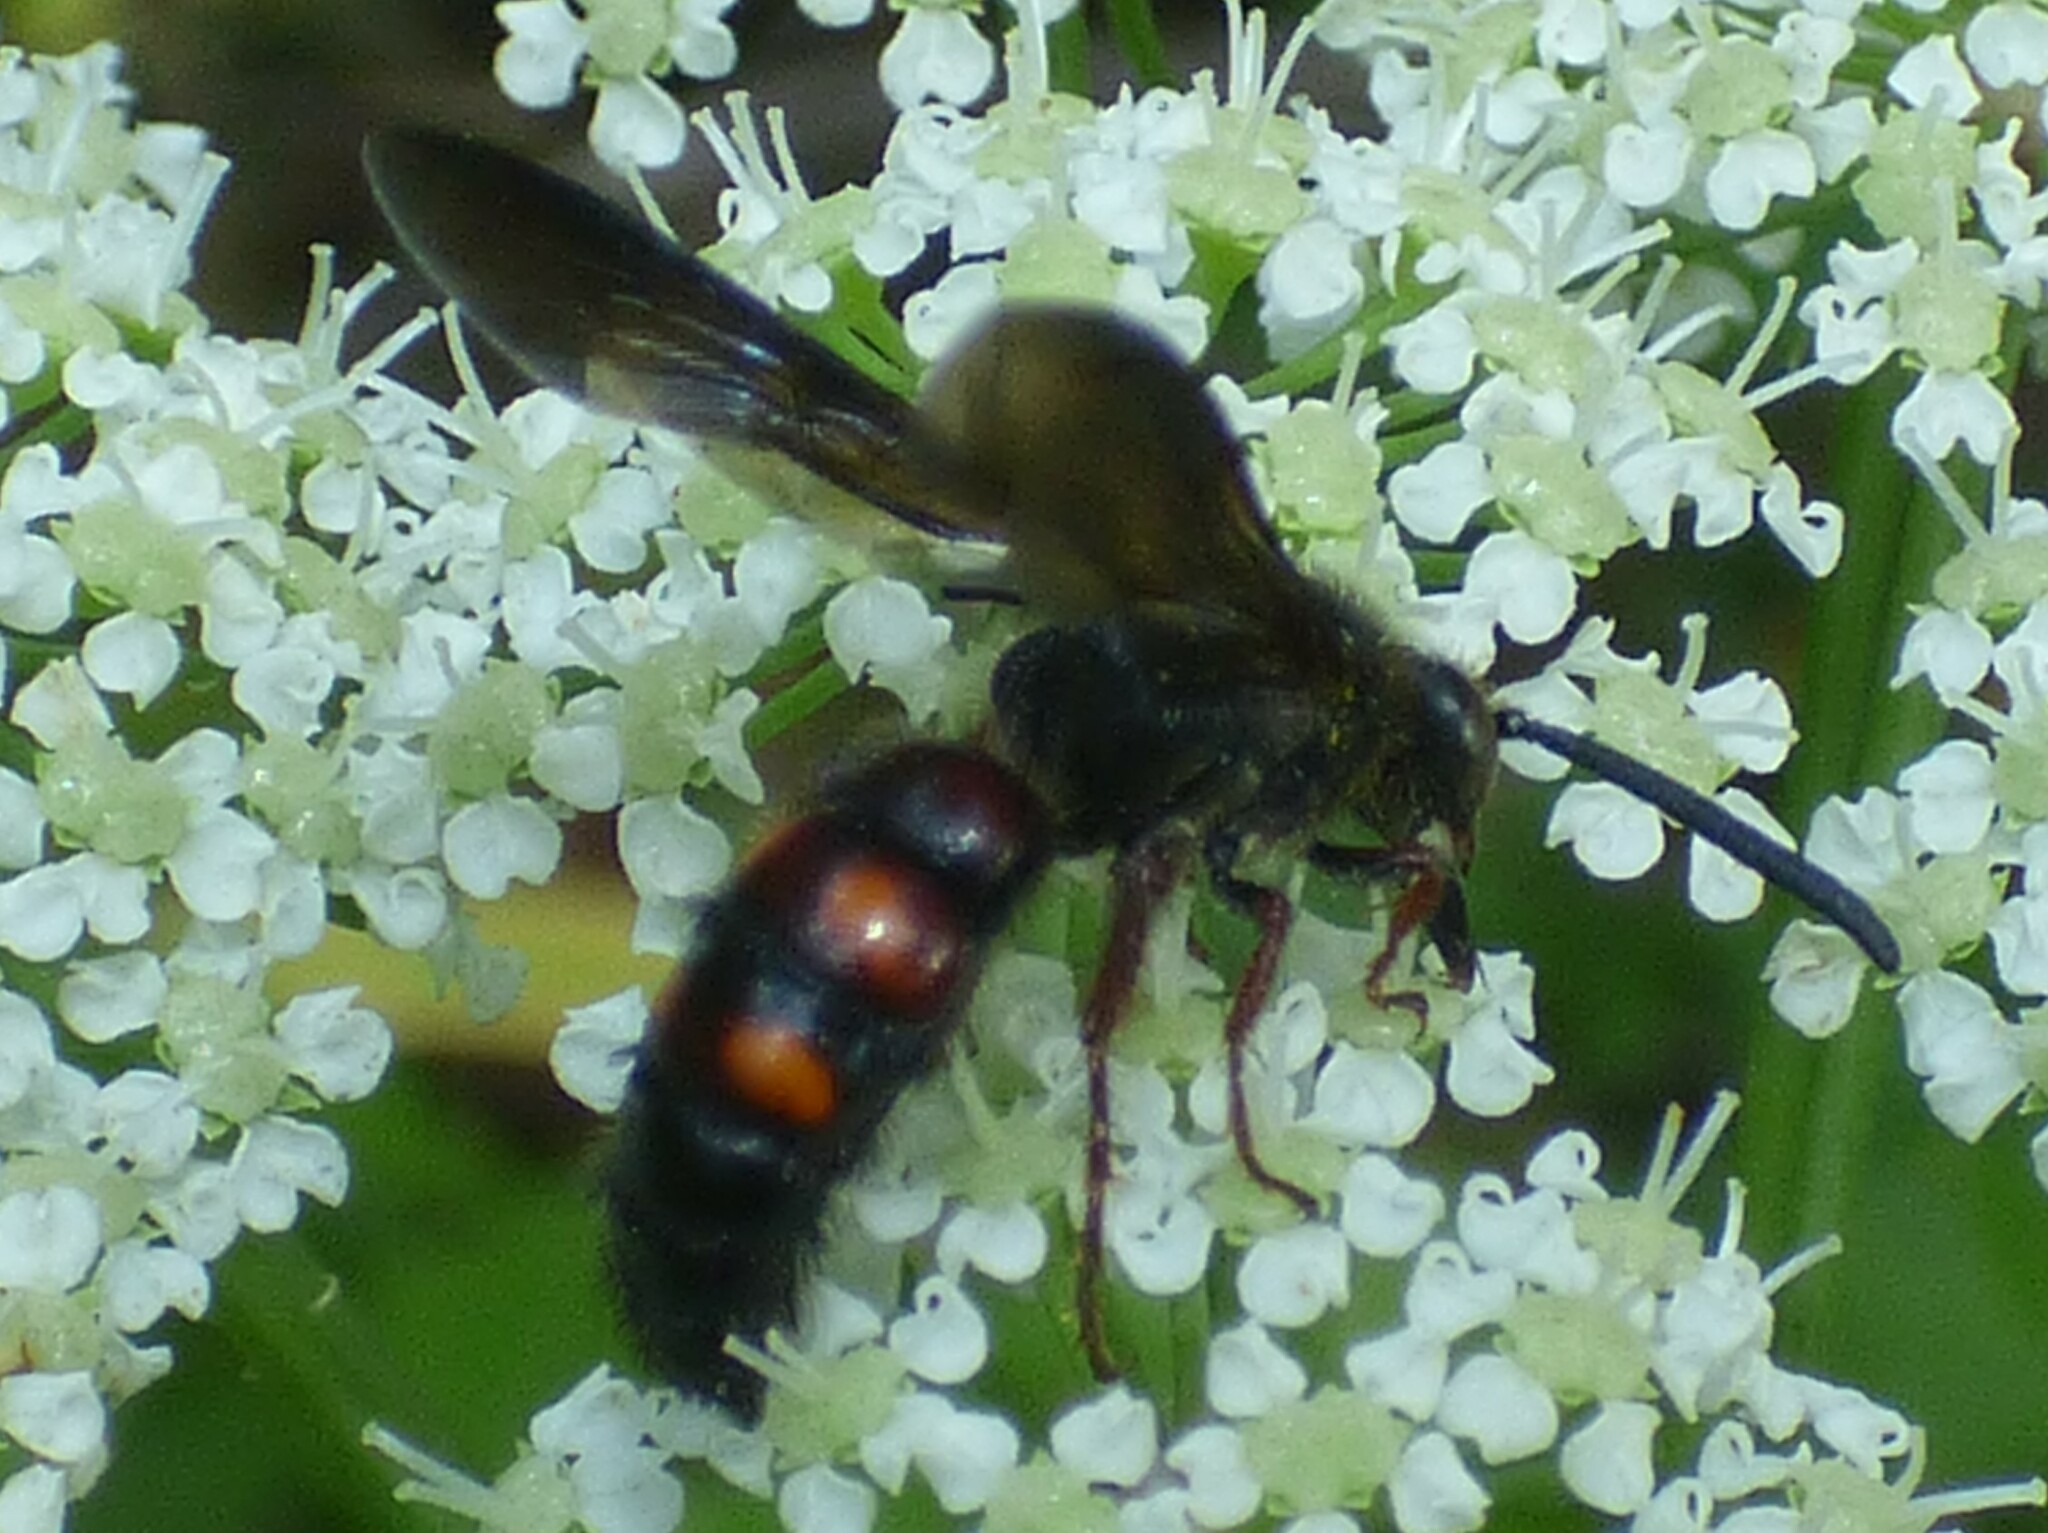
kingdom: Animalia
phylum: Arthropoda
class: Insecta
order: Hymenoptera
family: Scoliidae
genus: Scolia
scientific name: Scolia nobilitata
